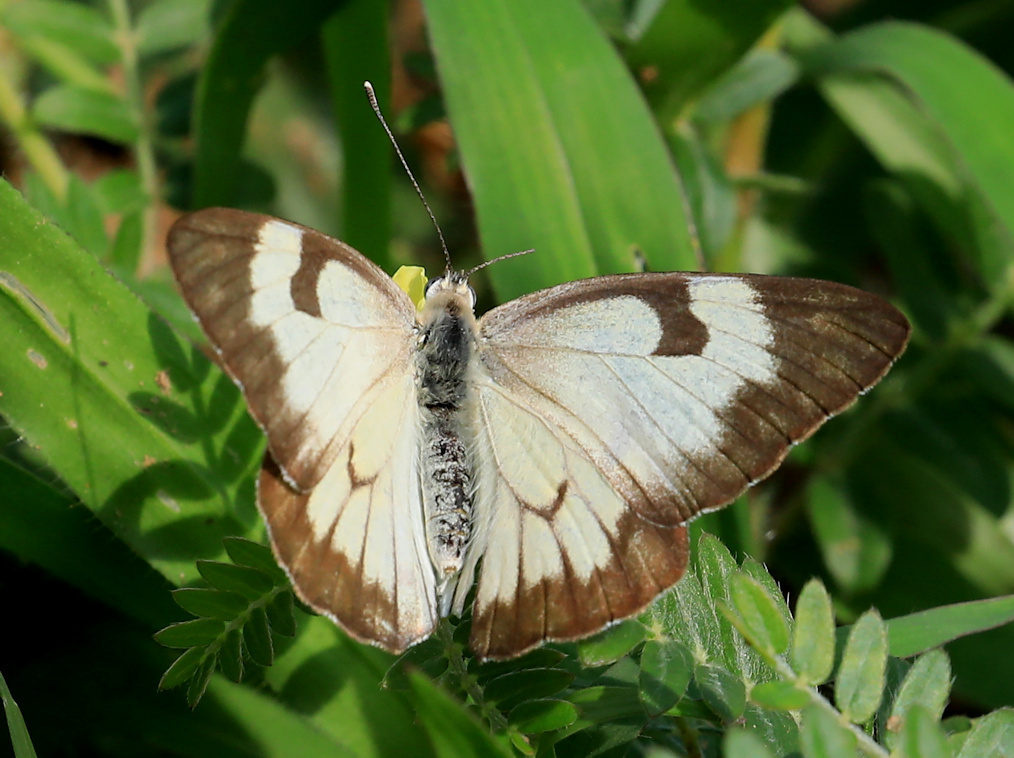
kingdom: Animalia
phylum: Arthropoda
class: Insecta
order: Lepidoptera
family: Pieridae
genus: Belenois
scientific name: Belenois aurota
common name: Brown-veined white
